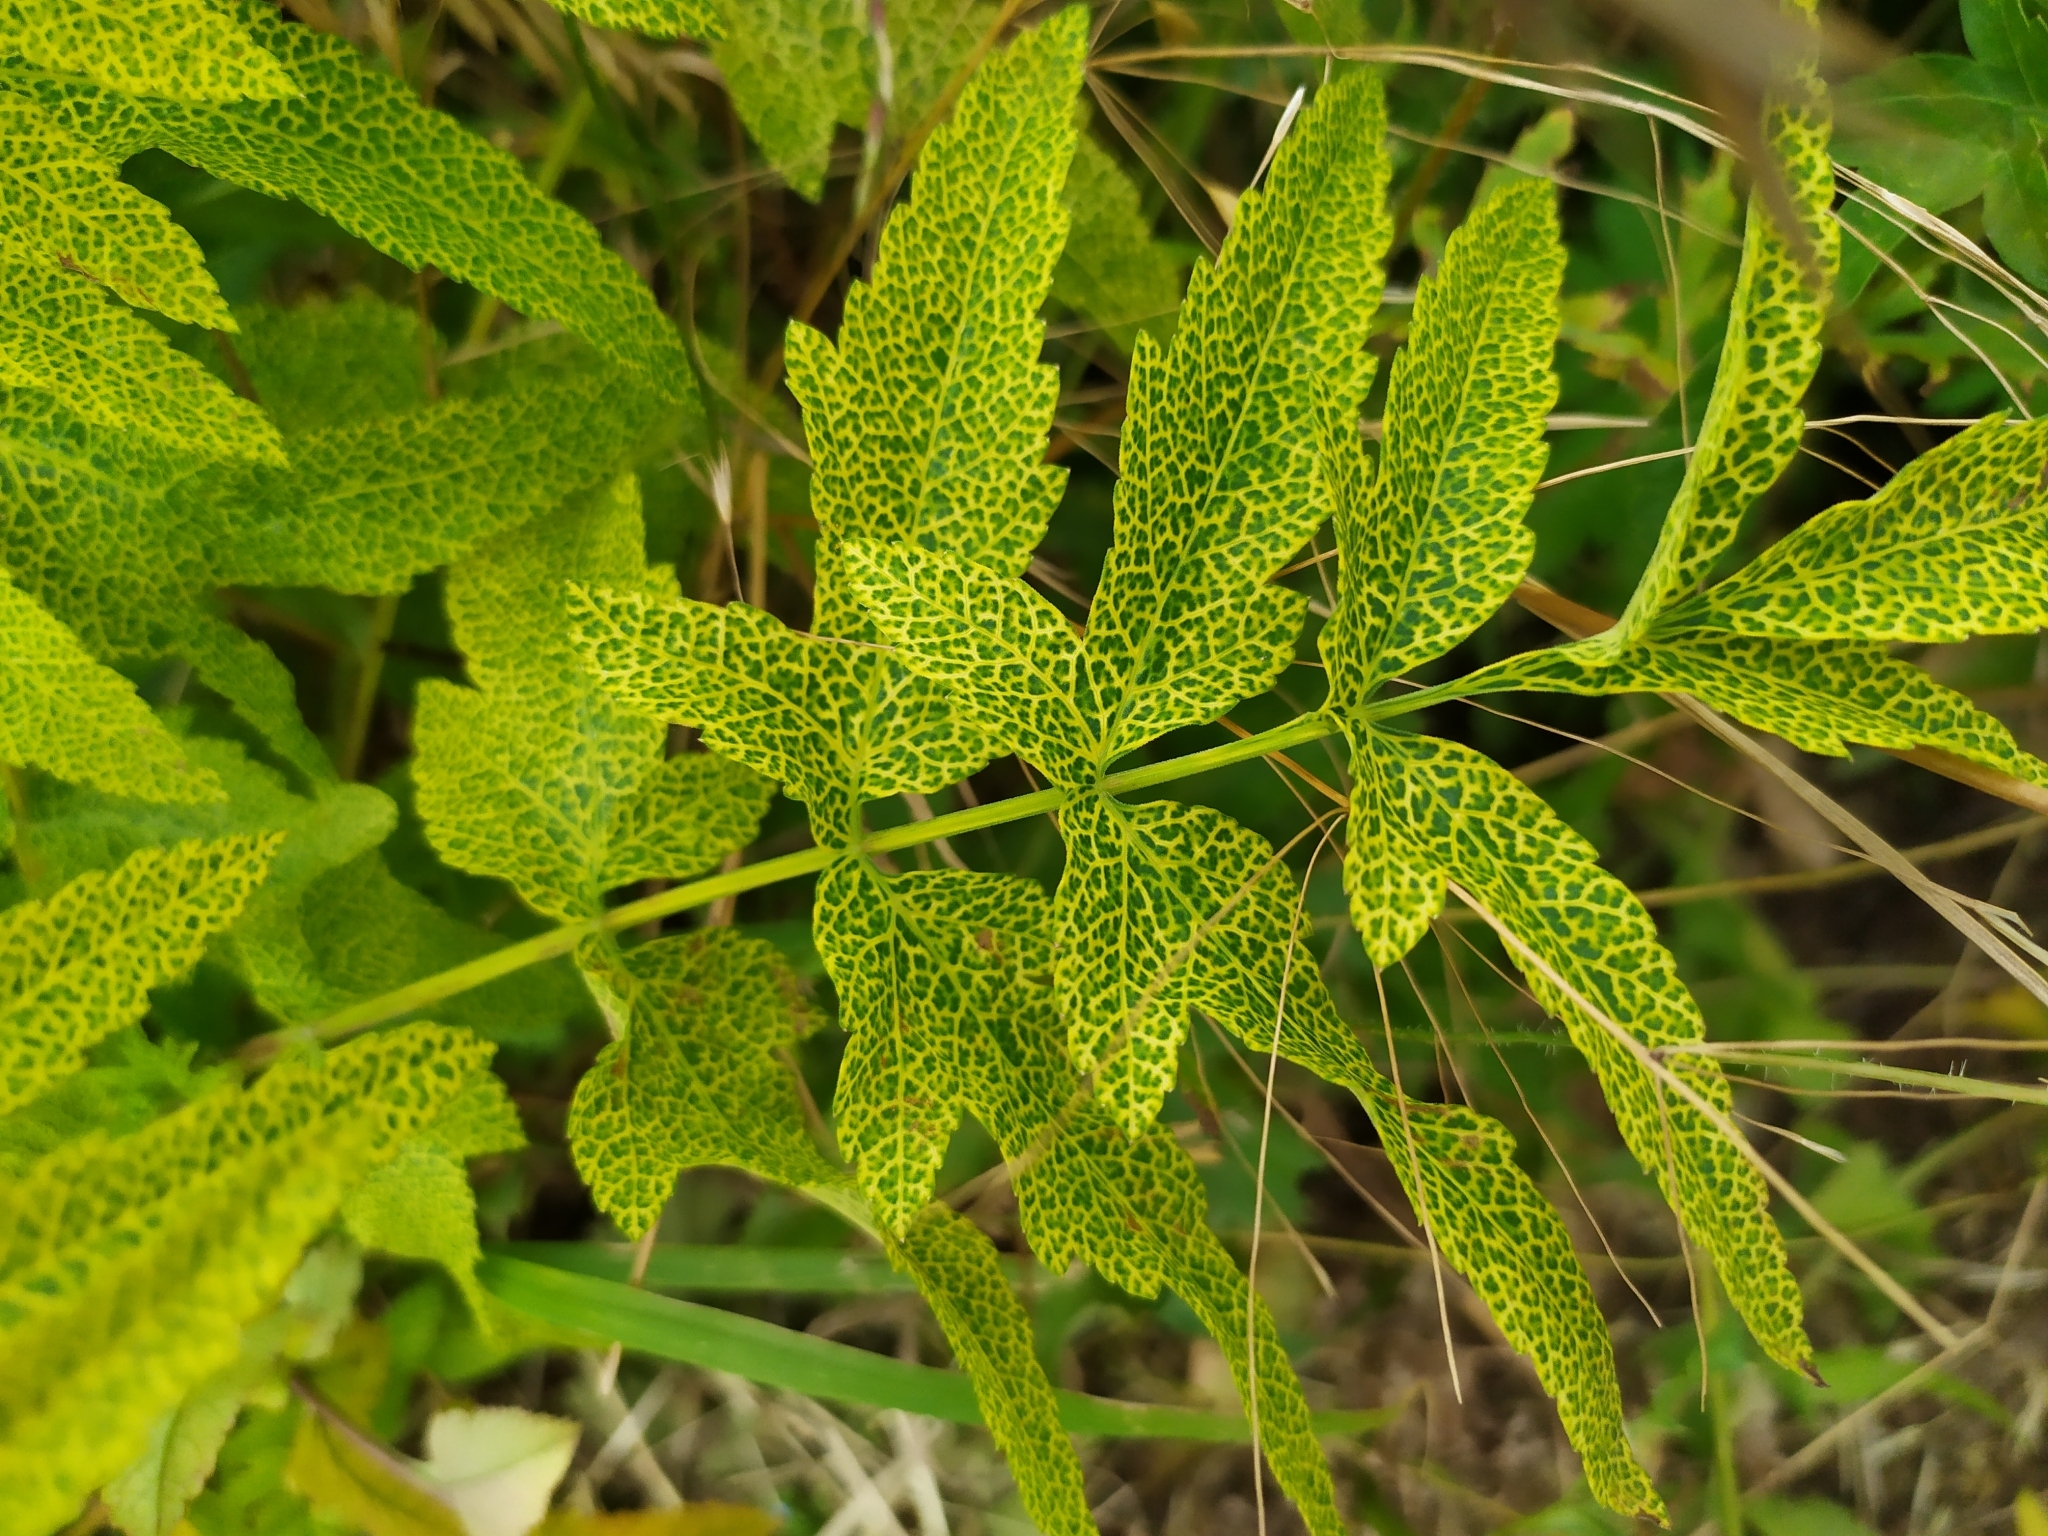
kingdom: Plantae
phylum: Tracheophyta
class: Magnoliopsida
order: Apiales
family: Apiaceae
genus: Pastinaca
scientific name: Pastinaca sativa
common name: Wild parsnip
